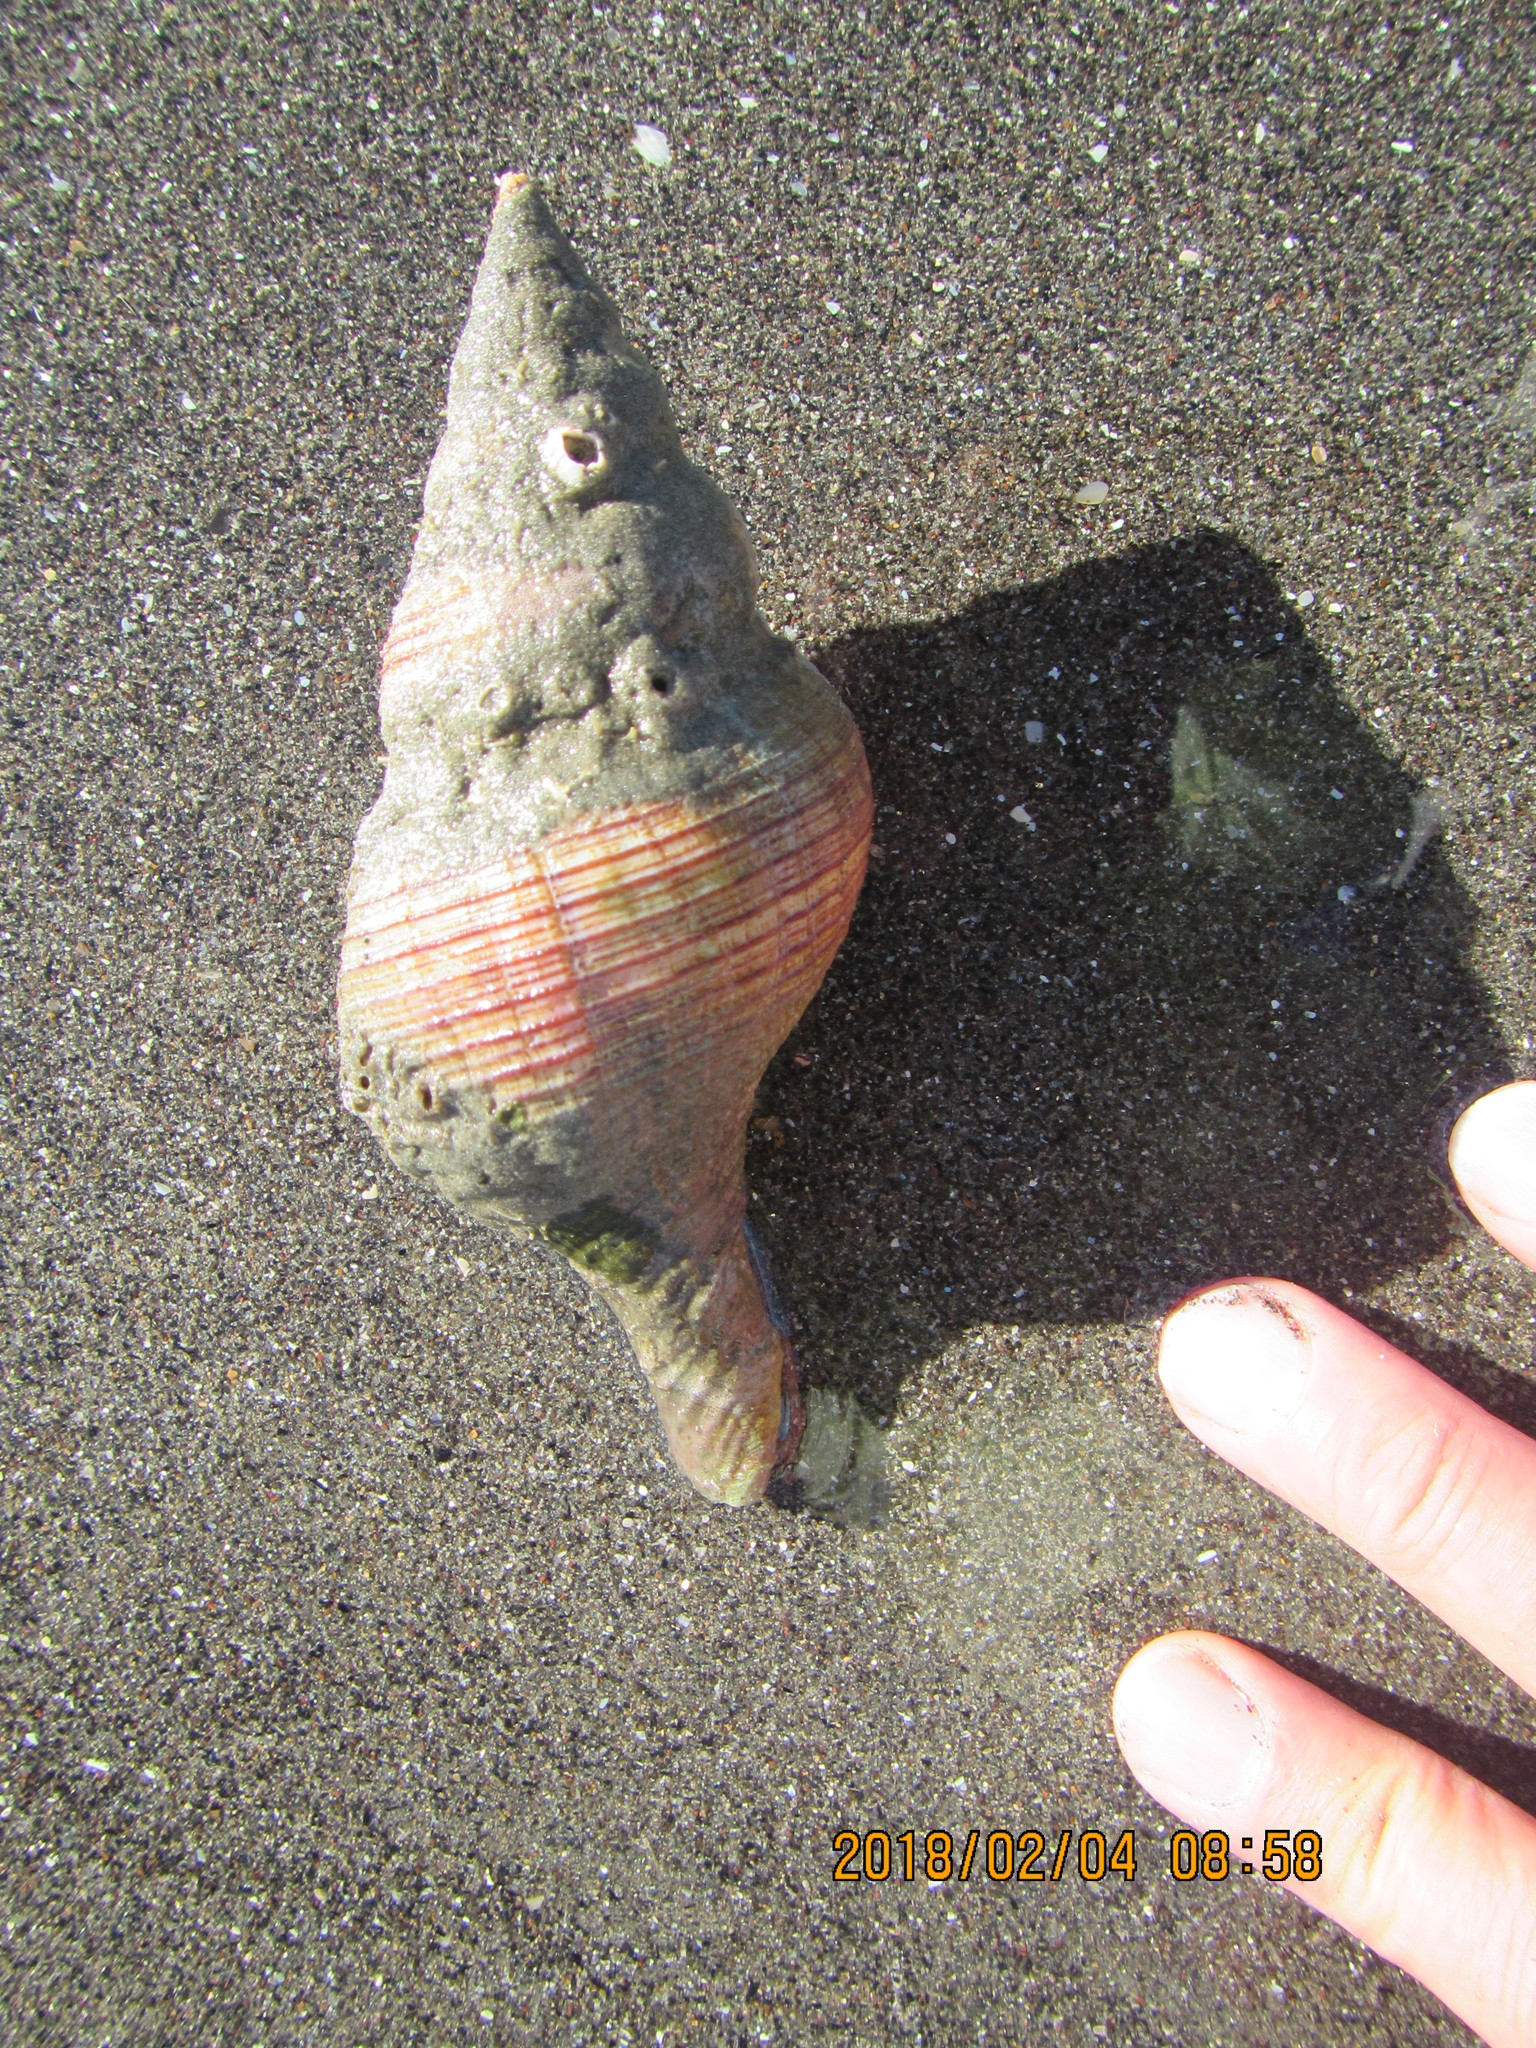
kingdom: Animalia
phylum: Mollusca
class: Gastropoda
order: Neogastropoda
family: Austrosiphonidae
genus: Penion
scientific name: Penion sulcatus
